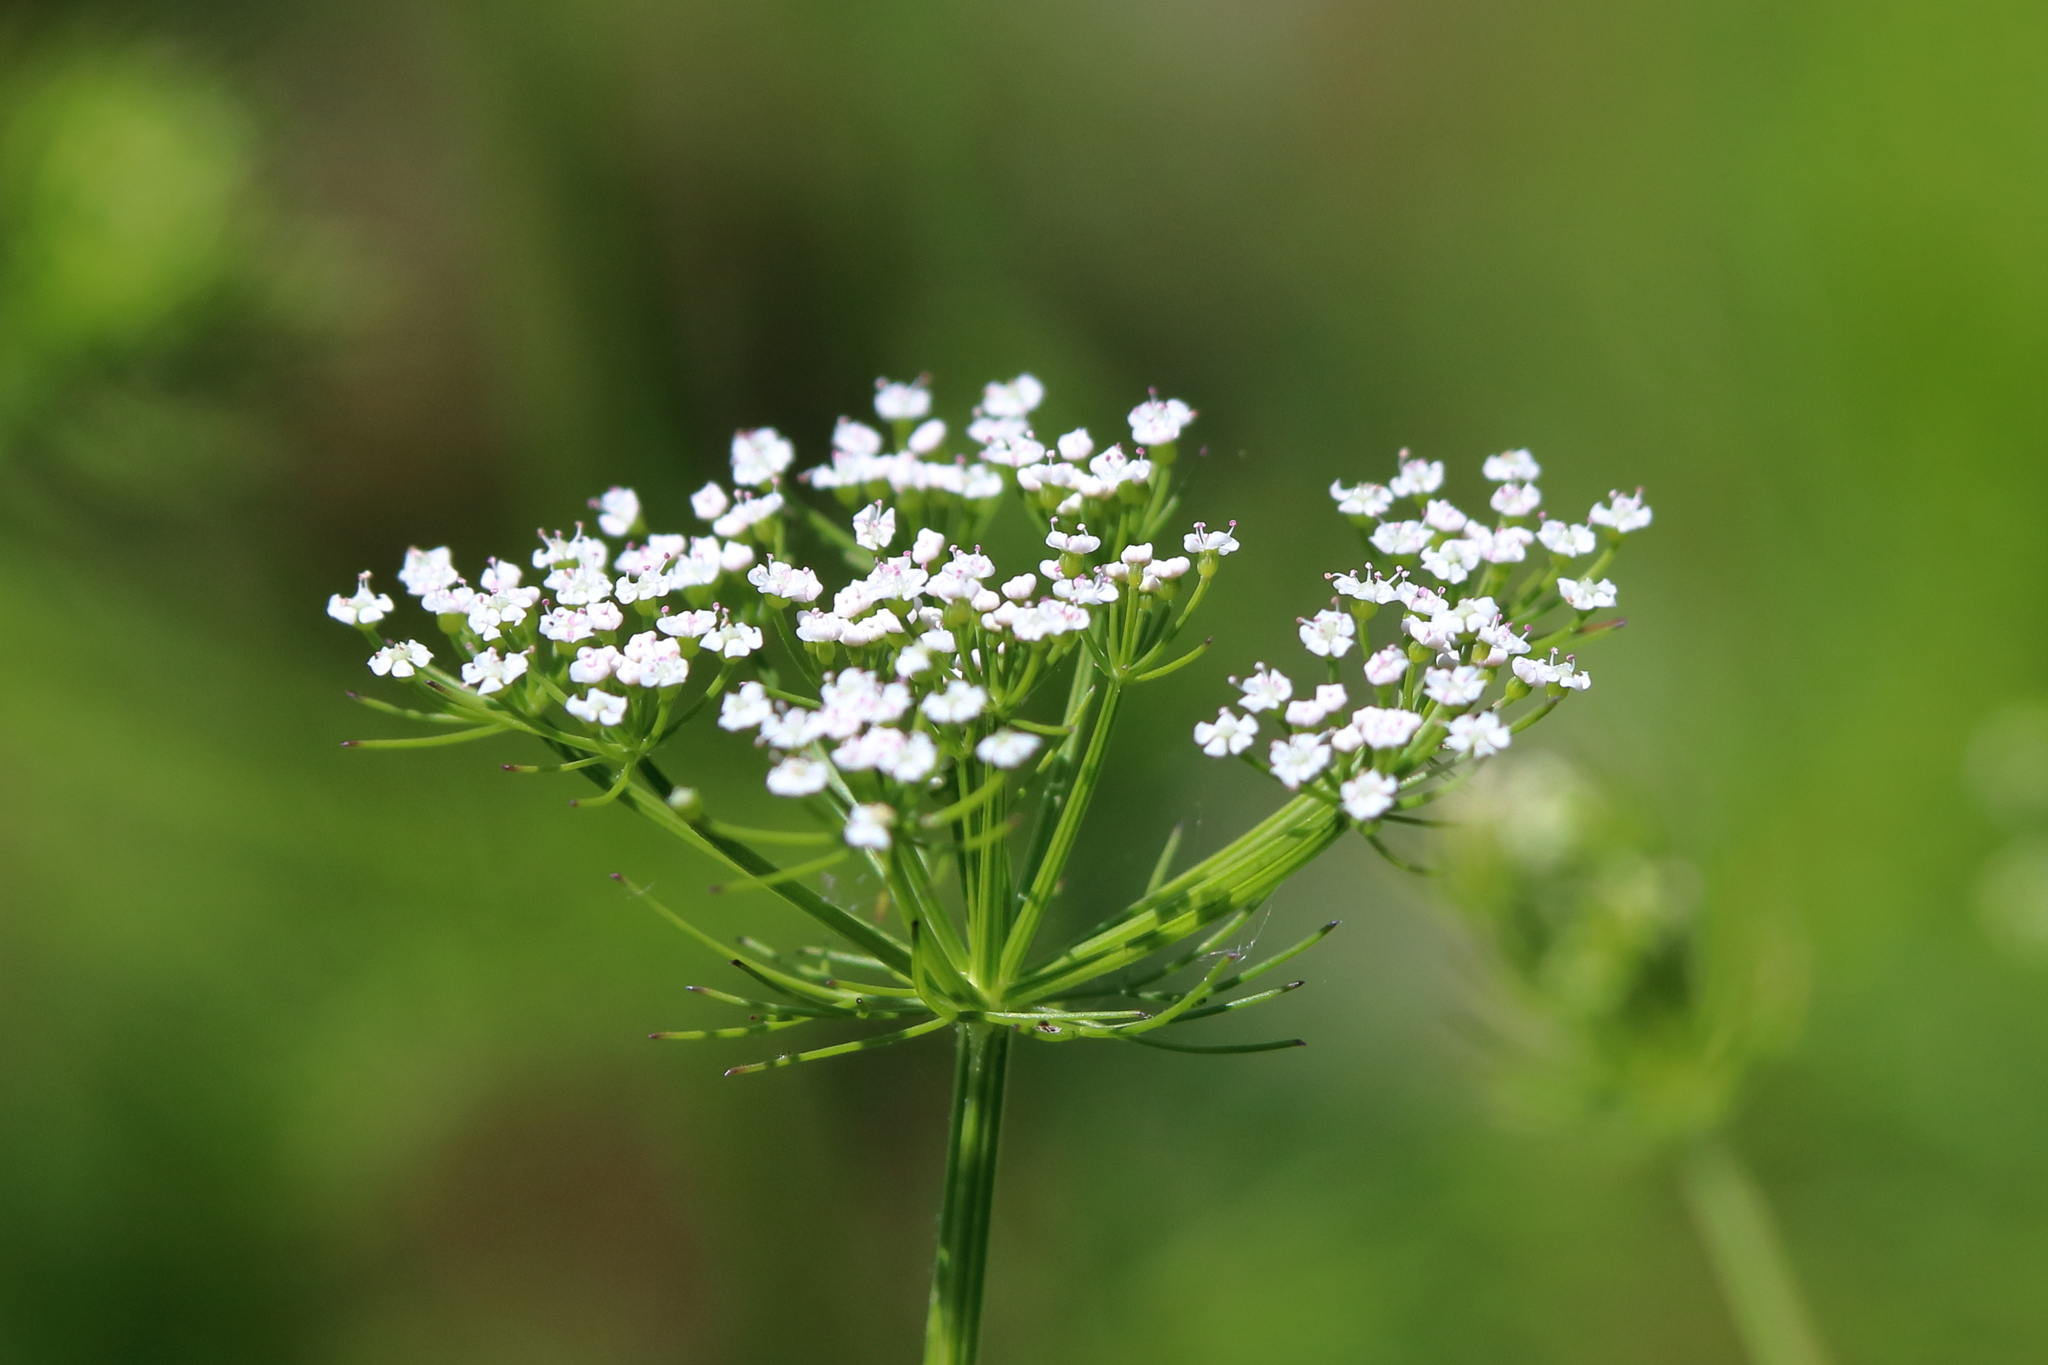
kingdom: Plantae
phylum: Tracheophyta
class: Magnoliopsida
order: Apiales
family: Apiaceae
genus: Ptilimnium
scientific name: Ptilimnium capillaceum
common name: Herbwilliam
